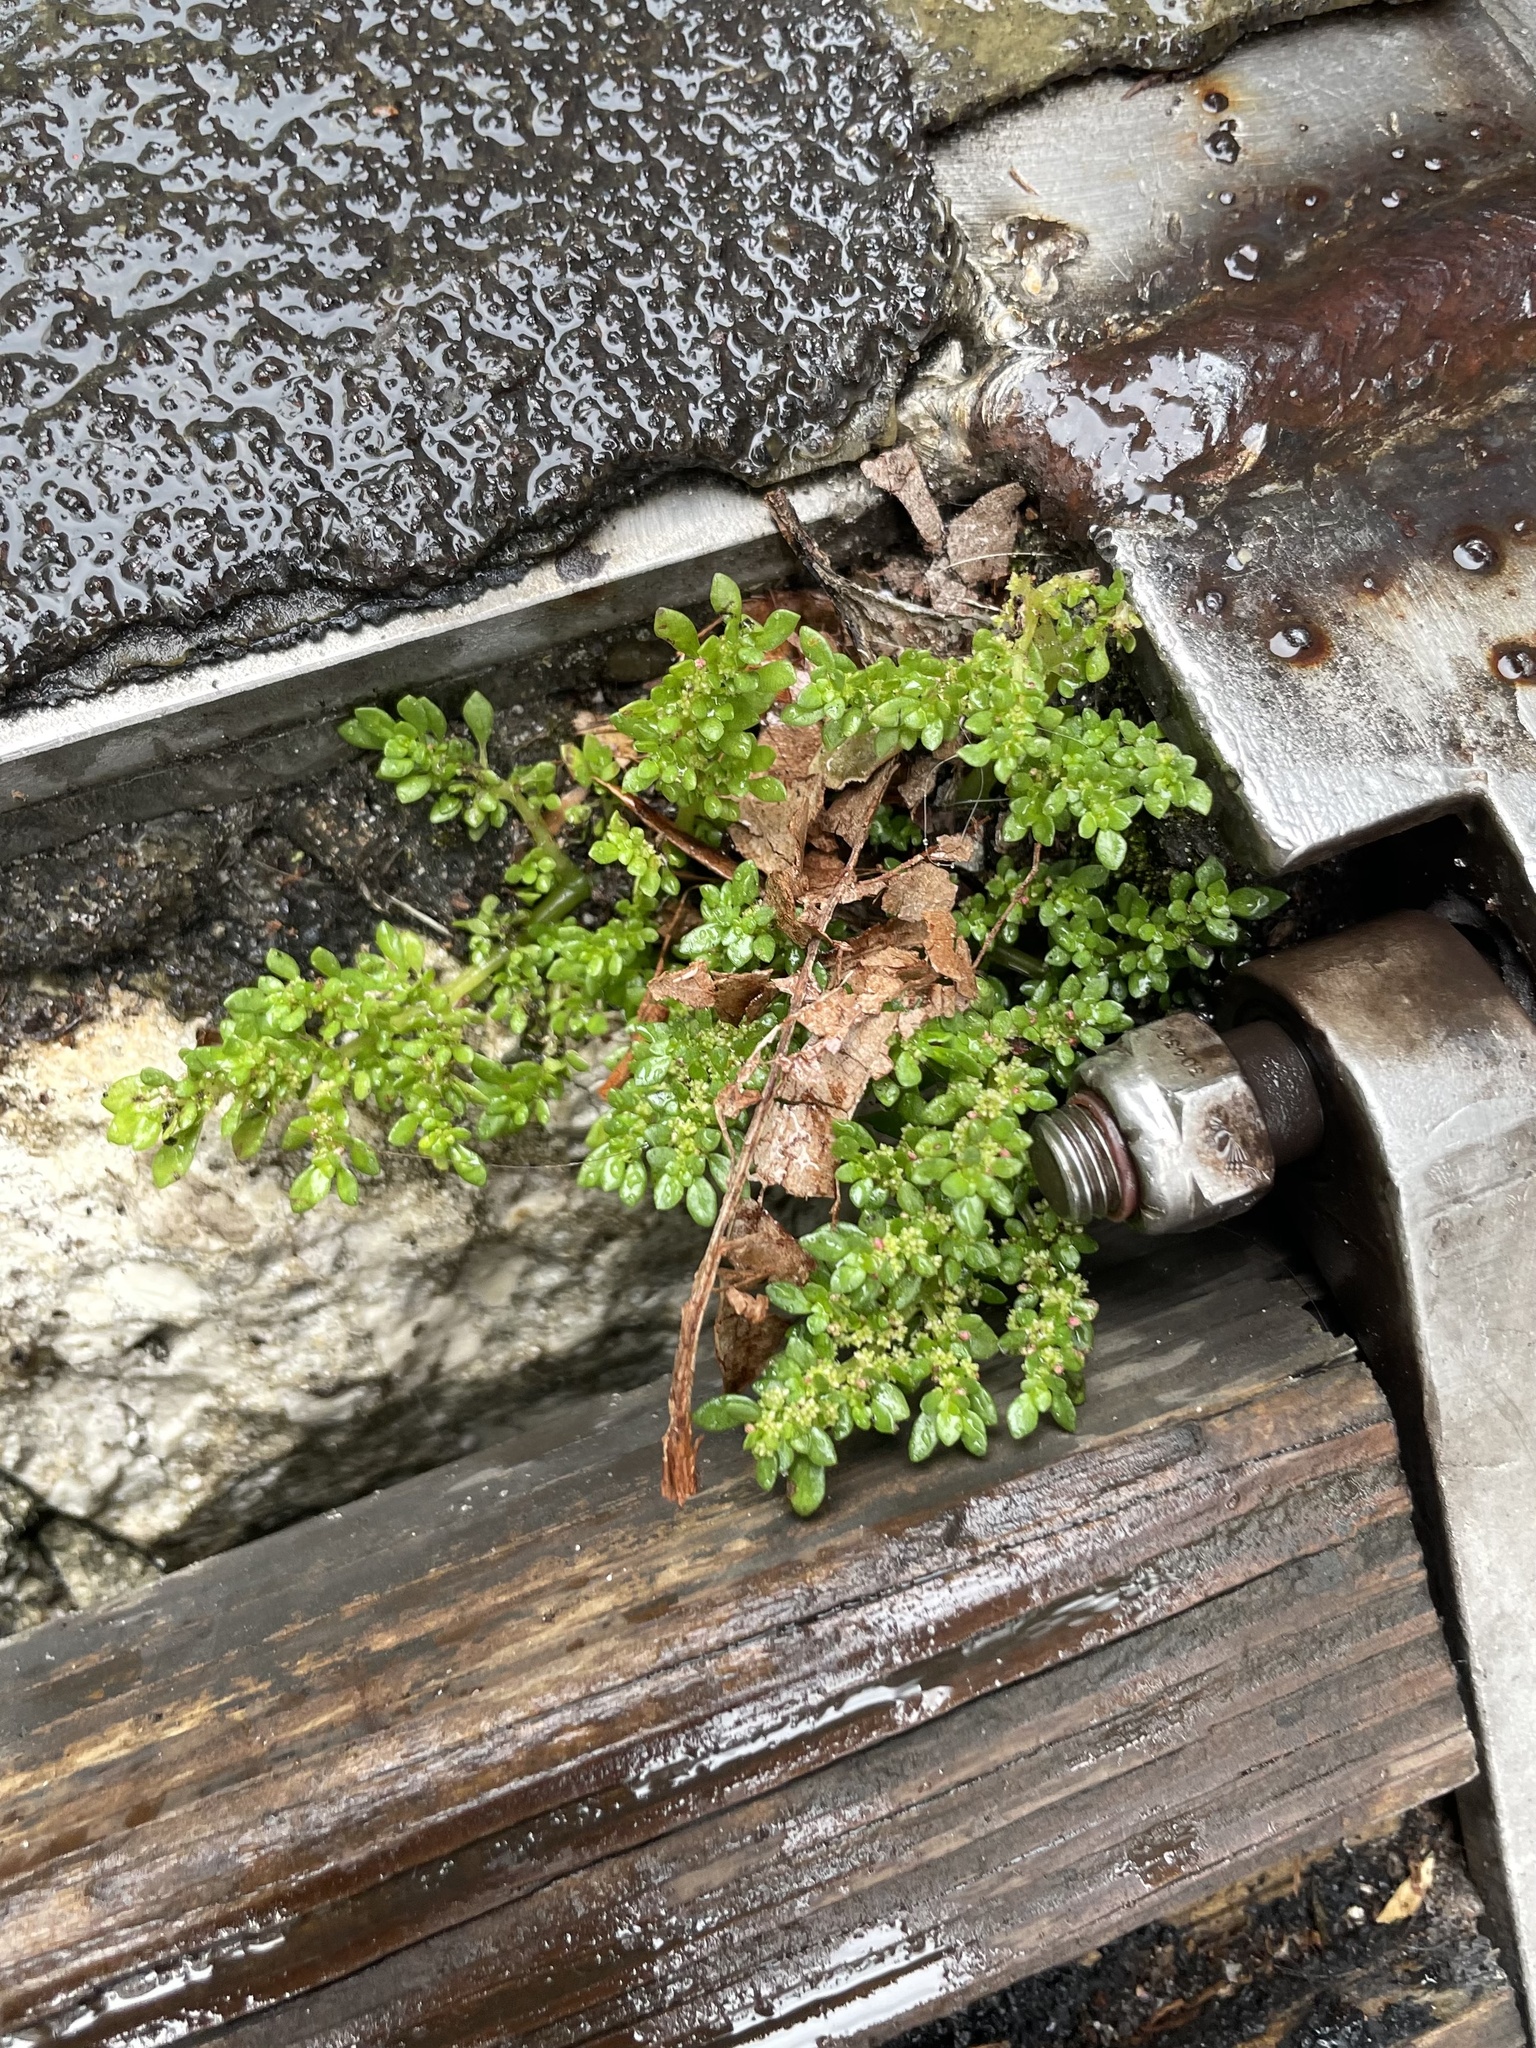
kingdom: Plantae
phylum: Tracheophyta
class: Magnoliopsida
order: Rosales
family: Urticaceae
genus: Pilea
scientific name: Pilea microphylla
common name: Artillery-plant
